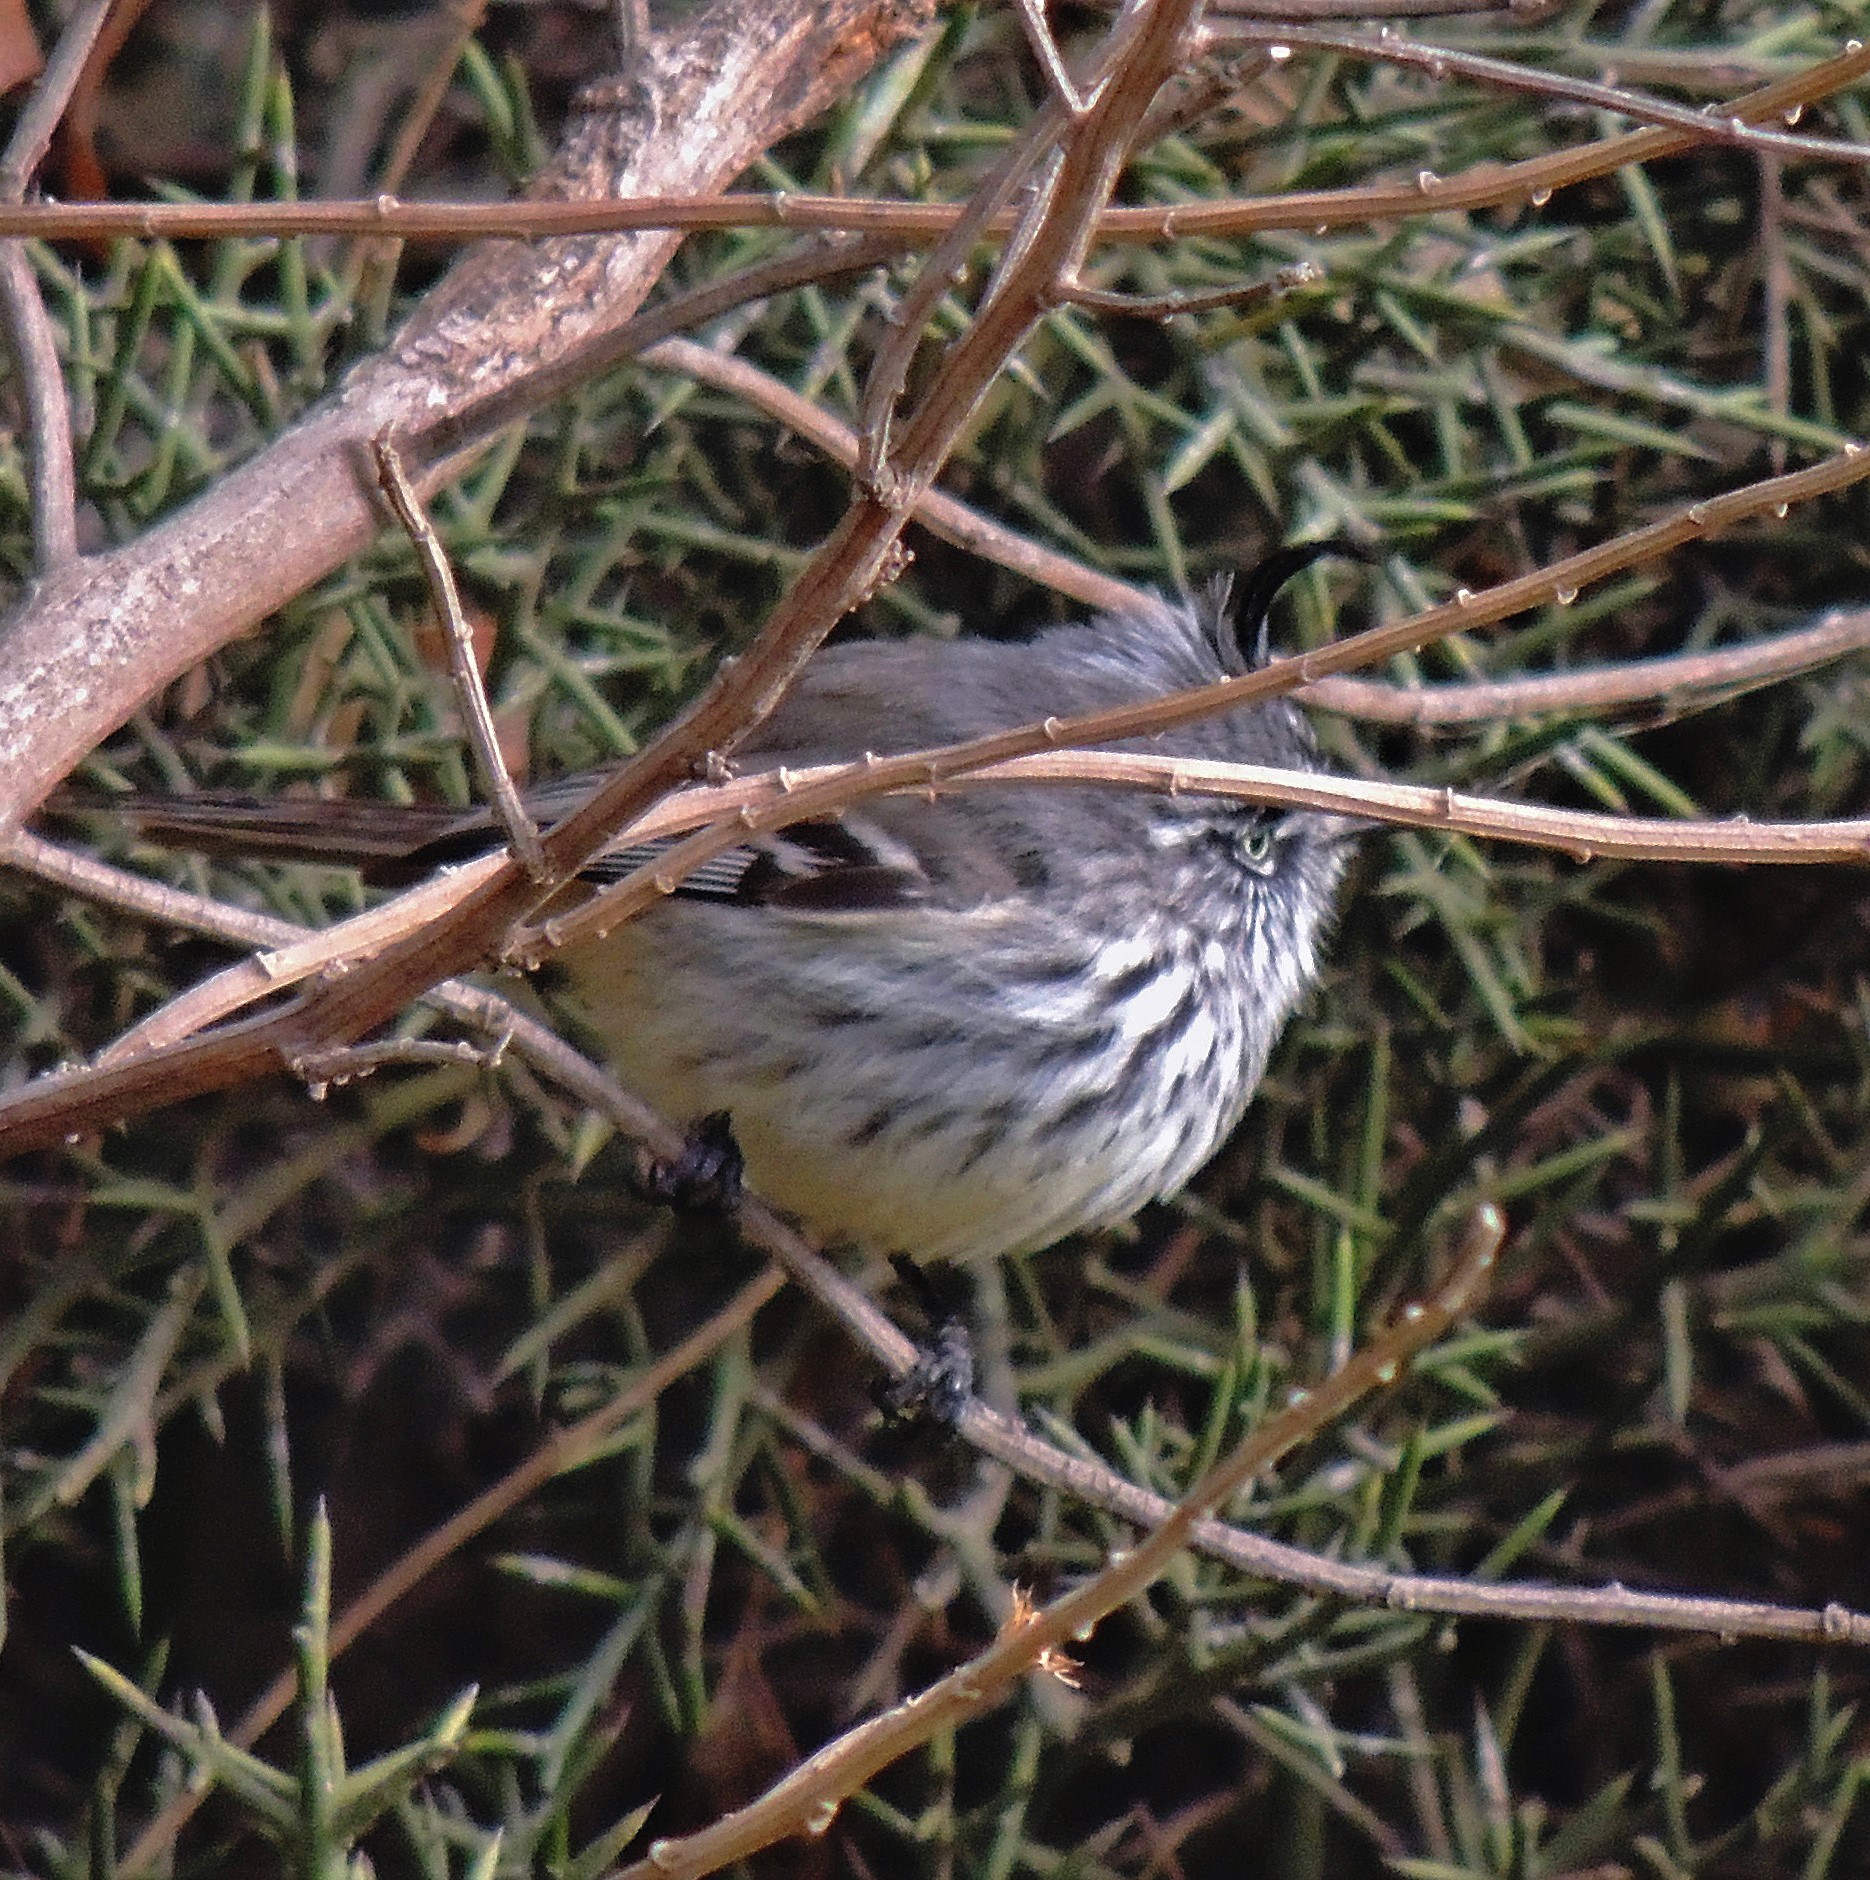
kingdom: Animalia
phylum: Chordata
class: Aves
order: Passeriformes
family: Tyrannidae
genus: Anairetes
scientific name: Anairetes parulus
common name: Tufted tit-tyrant
